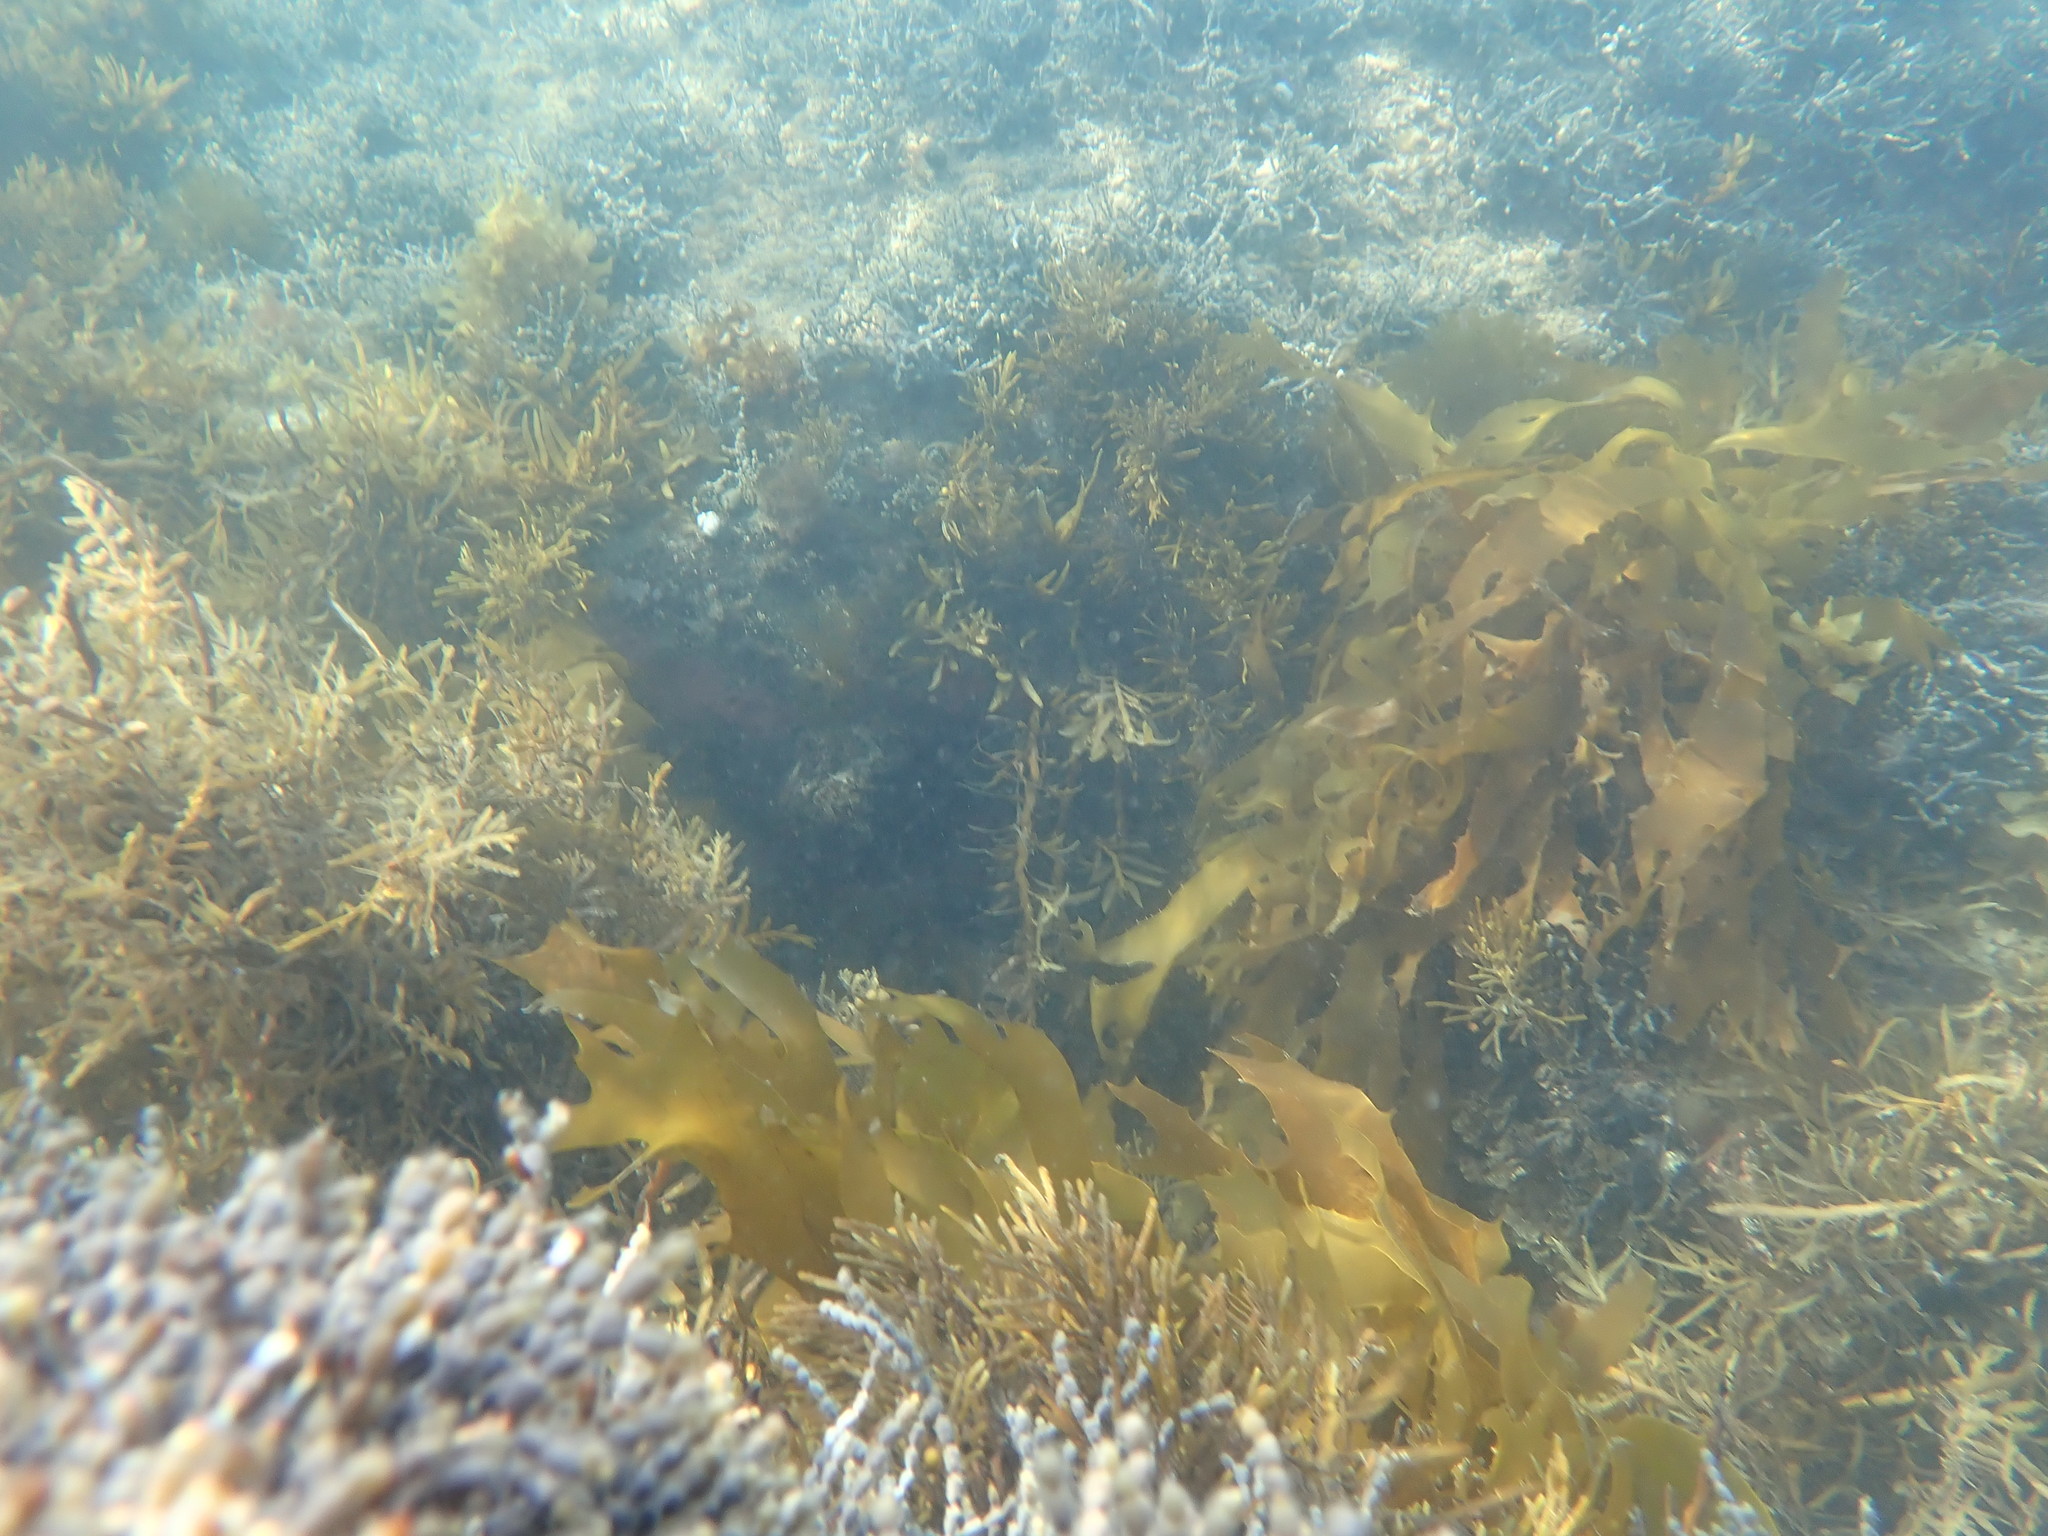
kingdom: Chromista
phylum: Ochrophyta
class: Phaeophyceae
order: Laminariales
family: Lessoniaceae
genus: Ecklonia
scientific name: Ecklonia radiata
